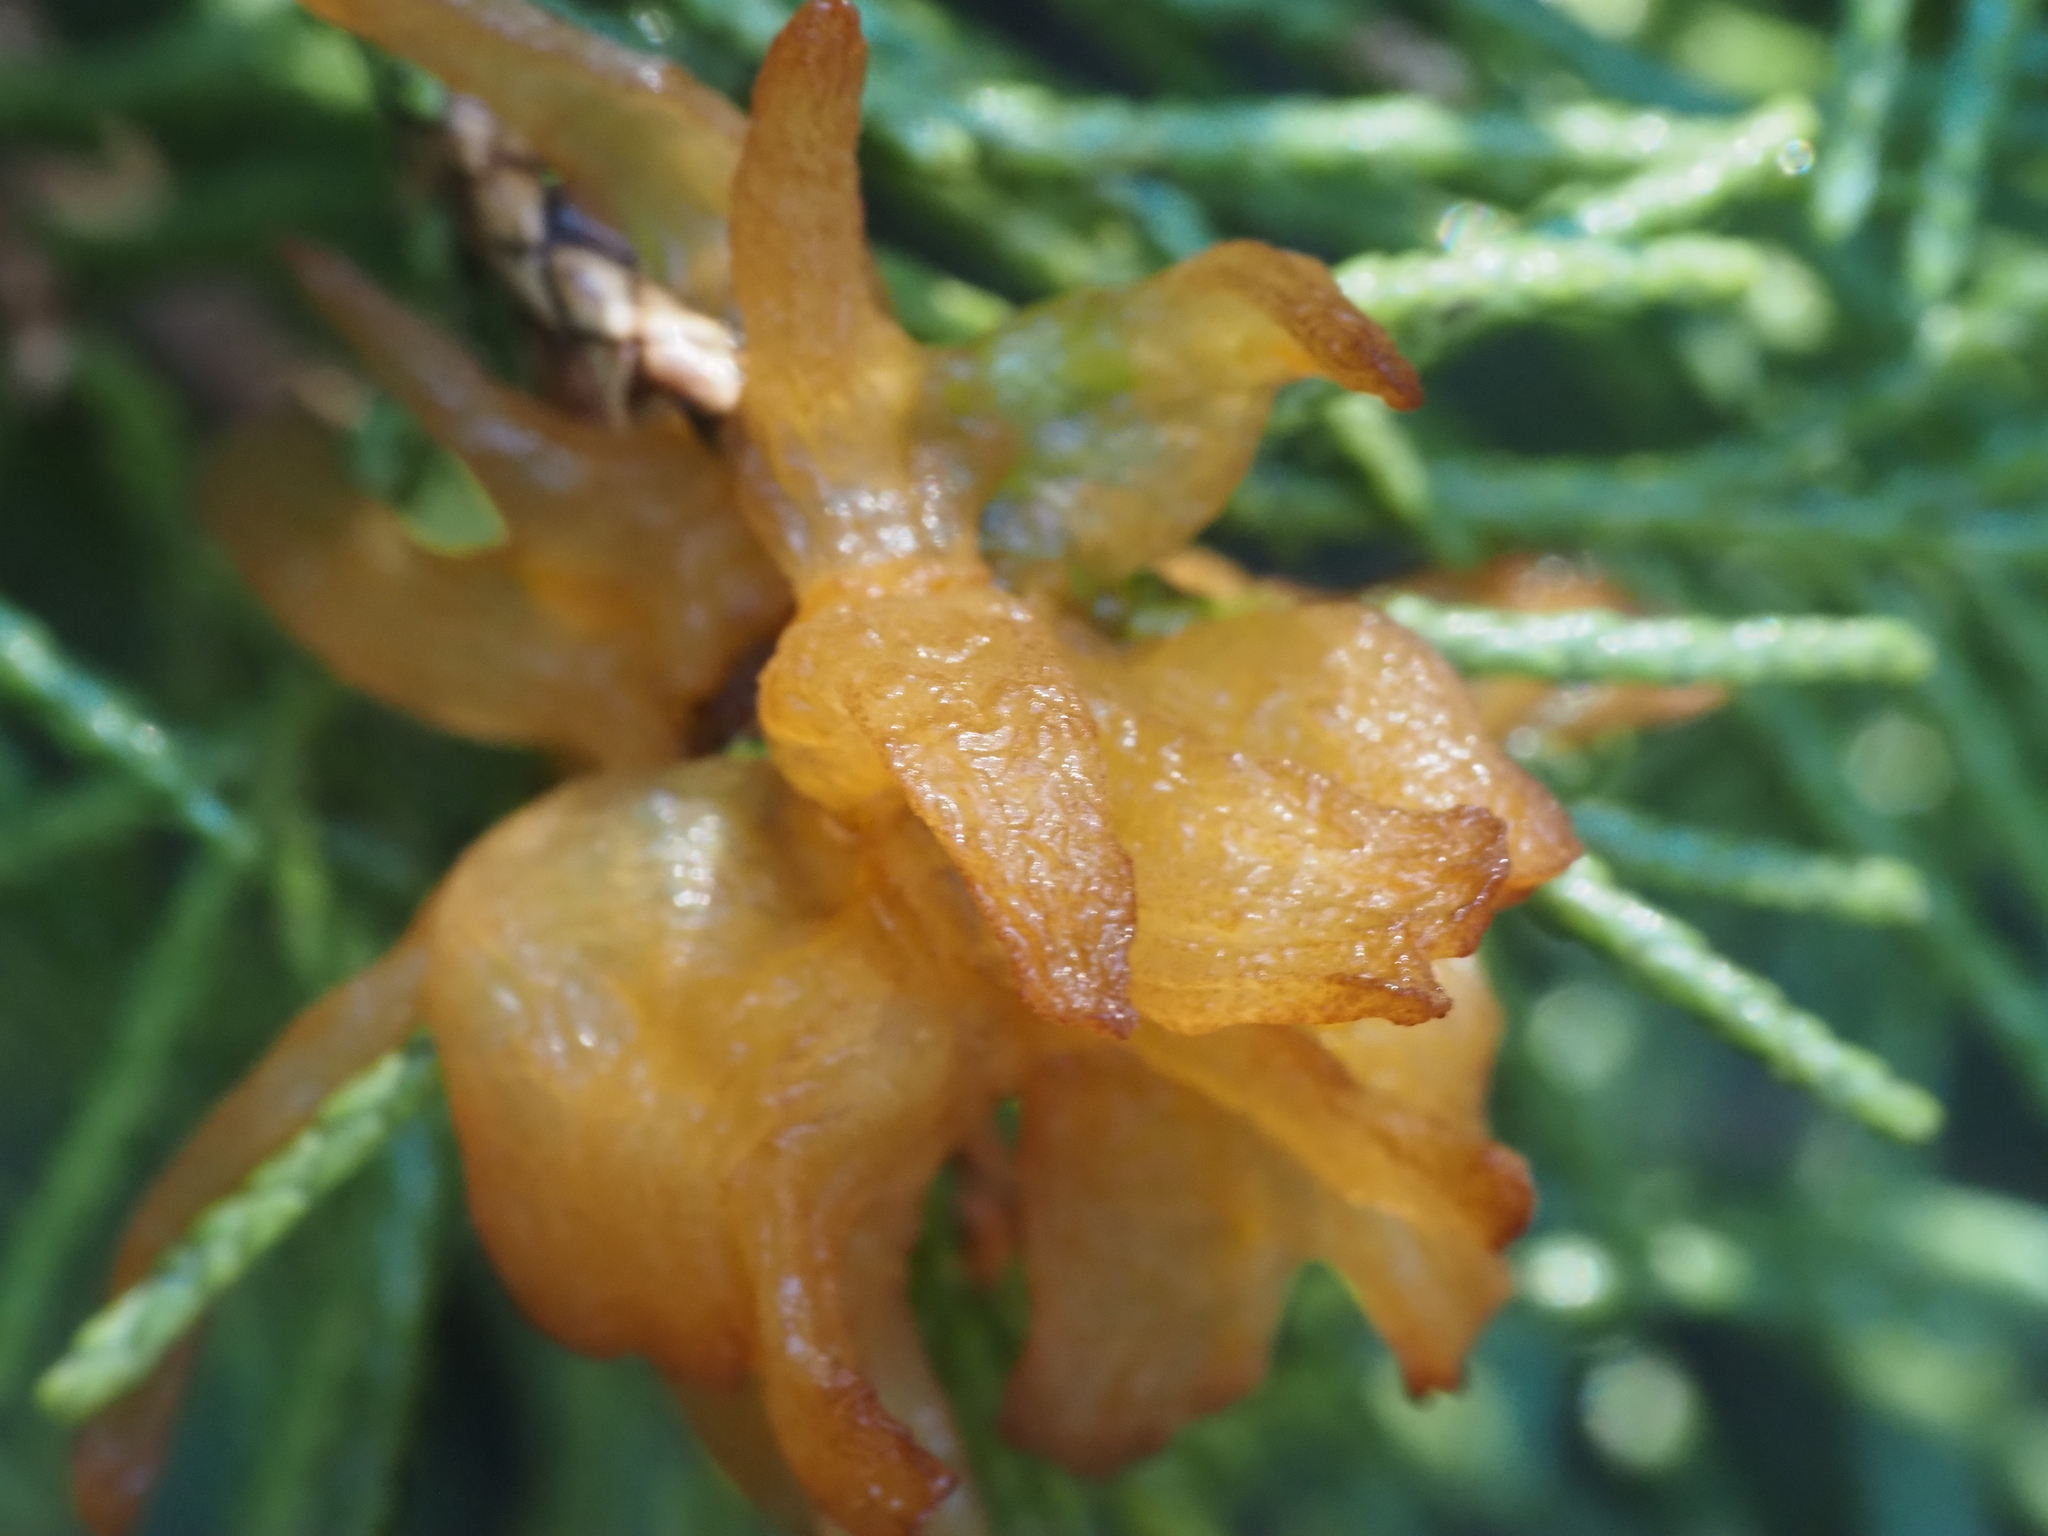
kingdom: Fungi
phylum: Basidiomycota
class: Pucciniomycetes
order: Pucciniales
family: Gymnosporangiaceae
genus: Gymnosporangium
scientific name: Gymnosporangium juniperi-virginianae
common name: Juniper-apple rust
